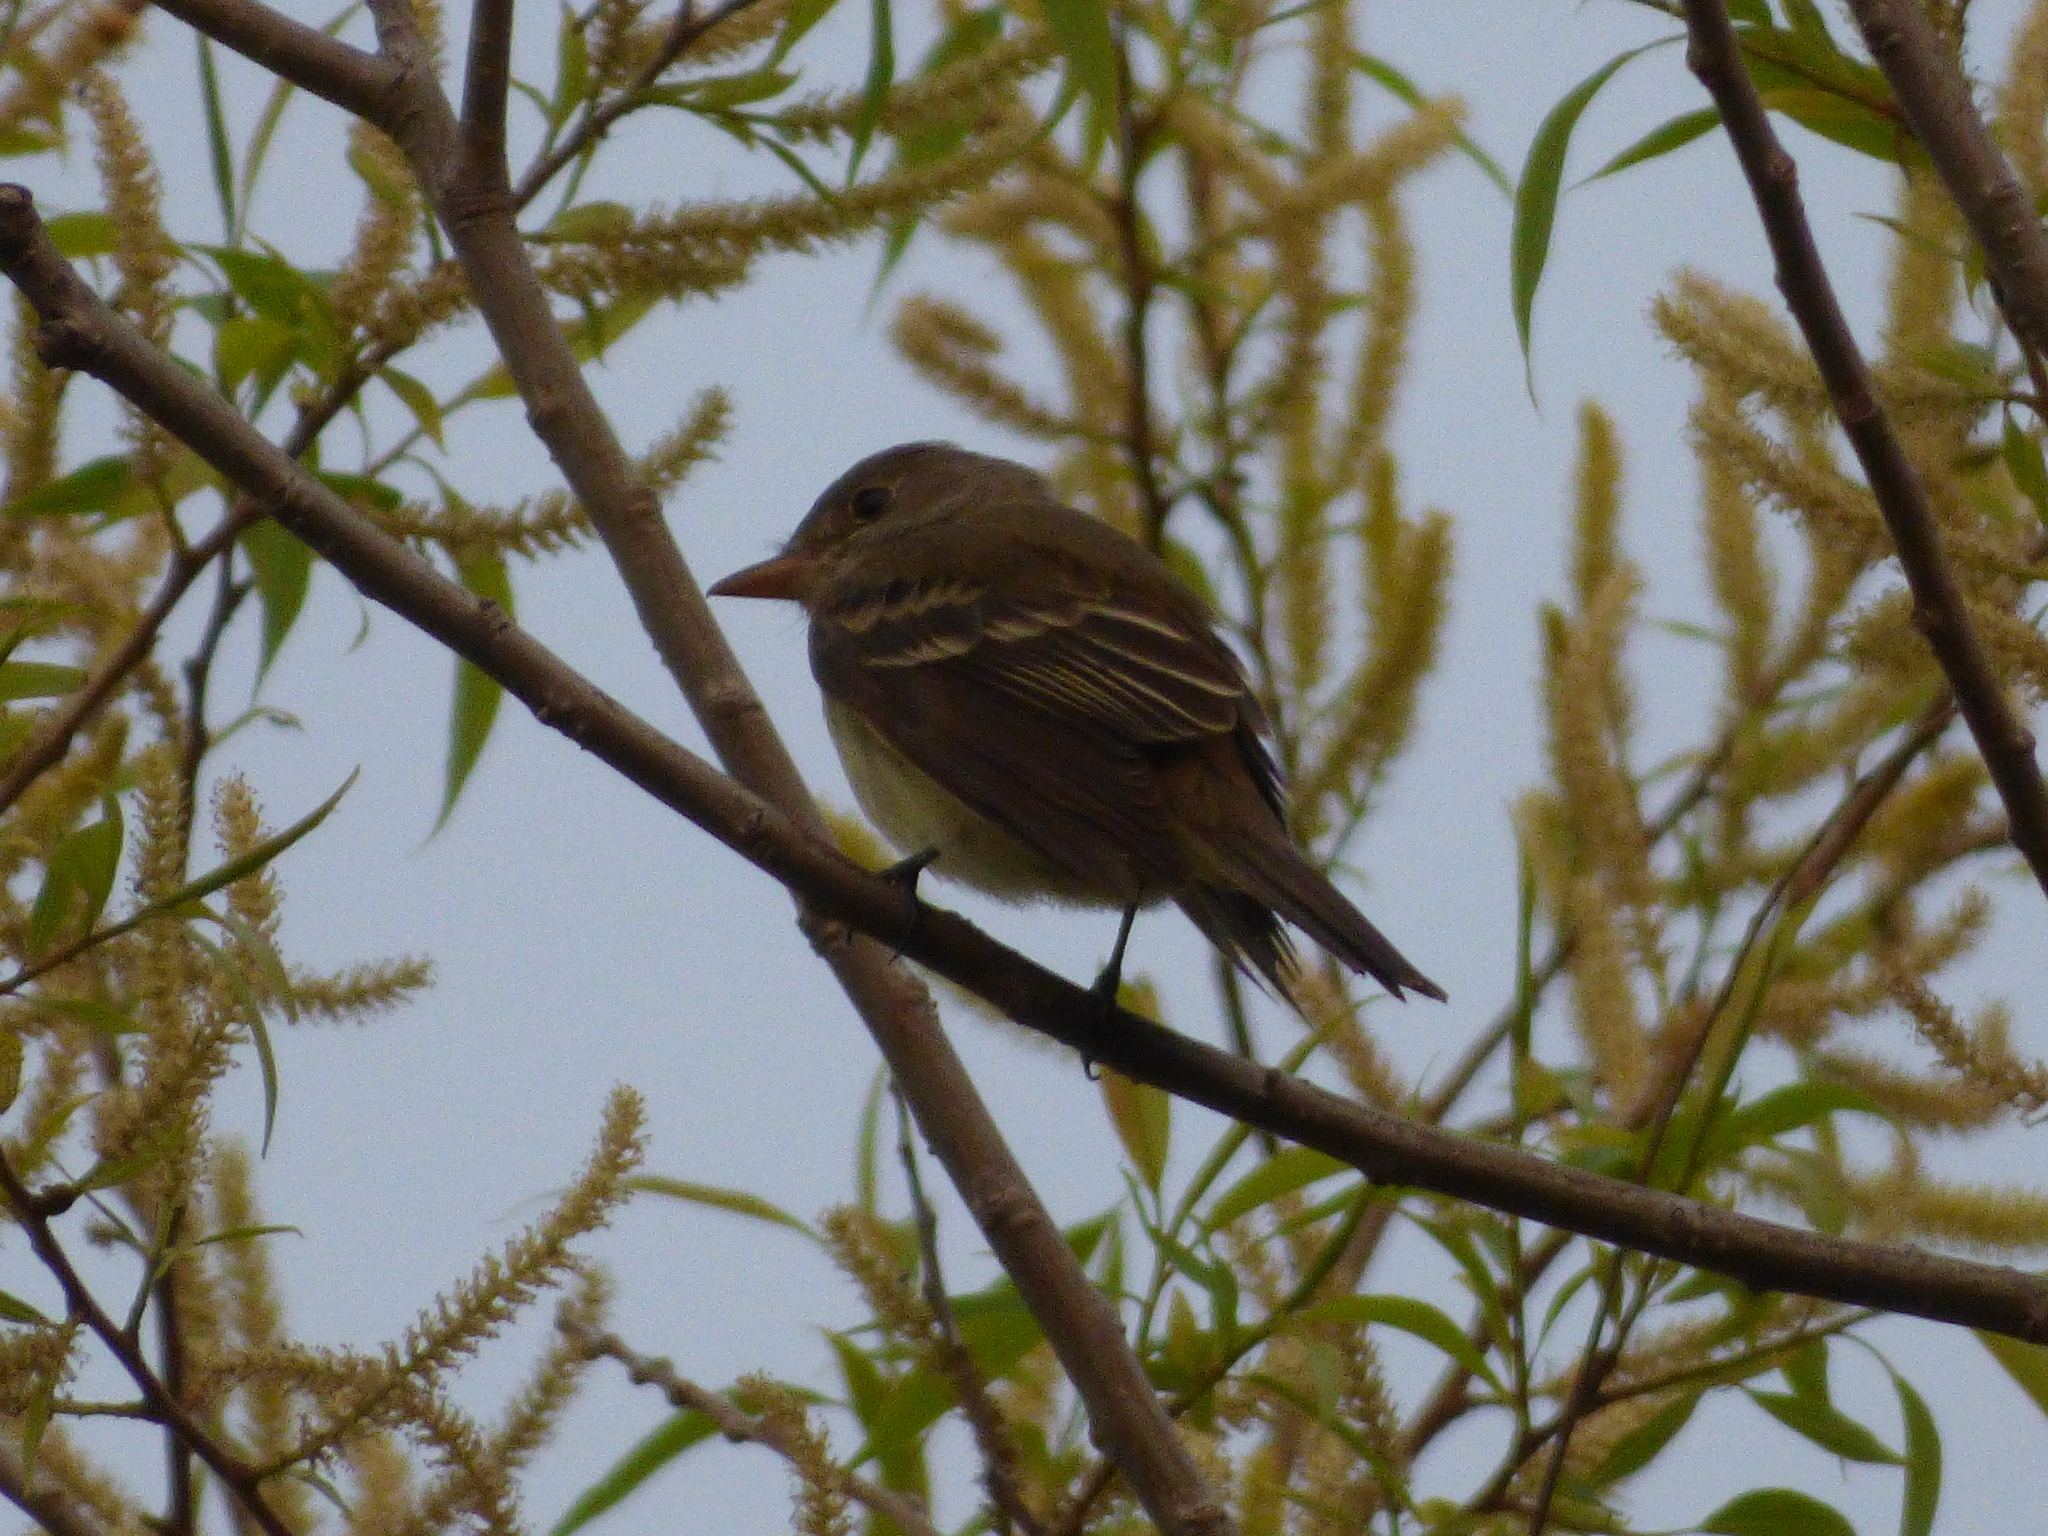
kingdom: Animalia
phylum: Chordata
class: Aves
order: Passeriformes
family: Tyrannidae
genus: Empidonax
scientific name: Empidonax alnorum
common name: Alder flycatcher
